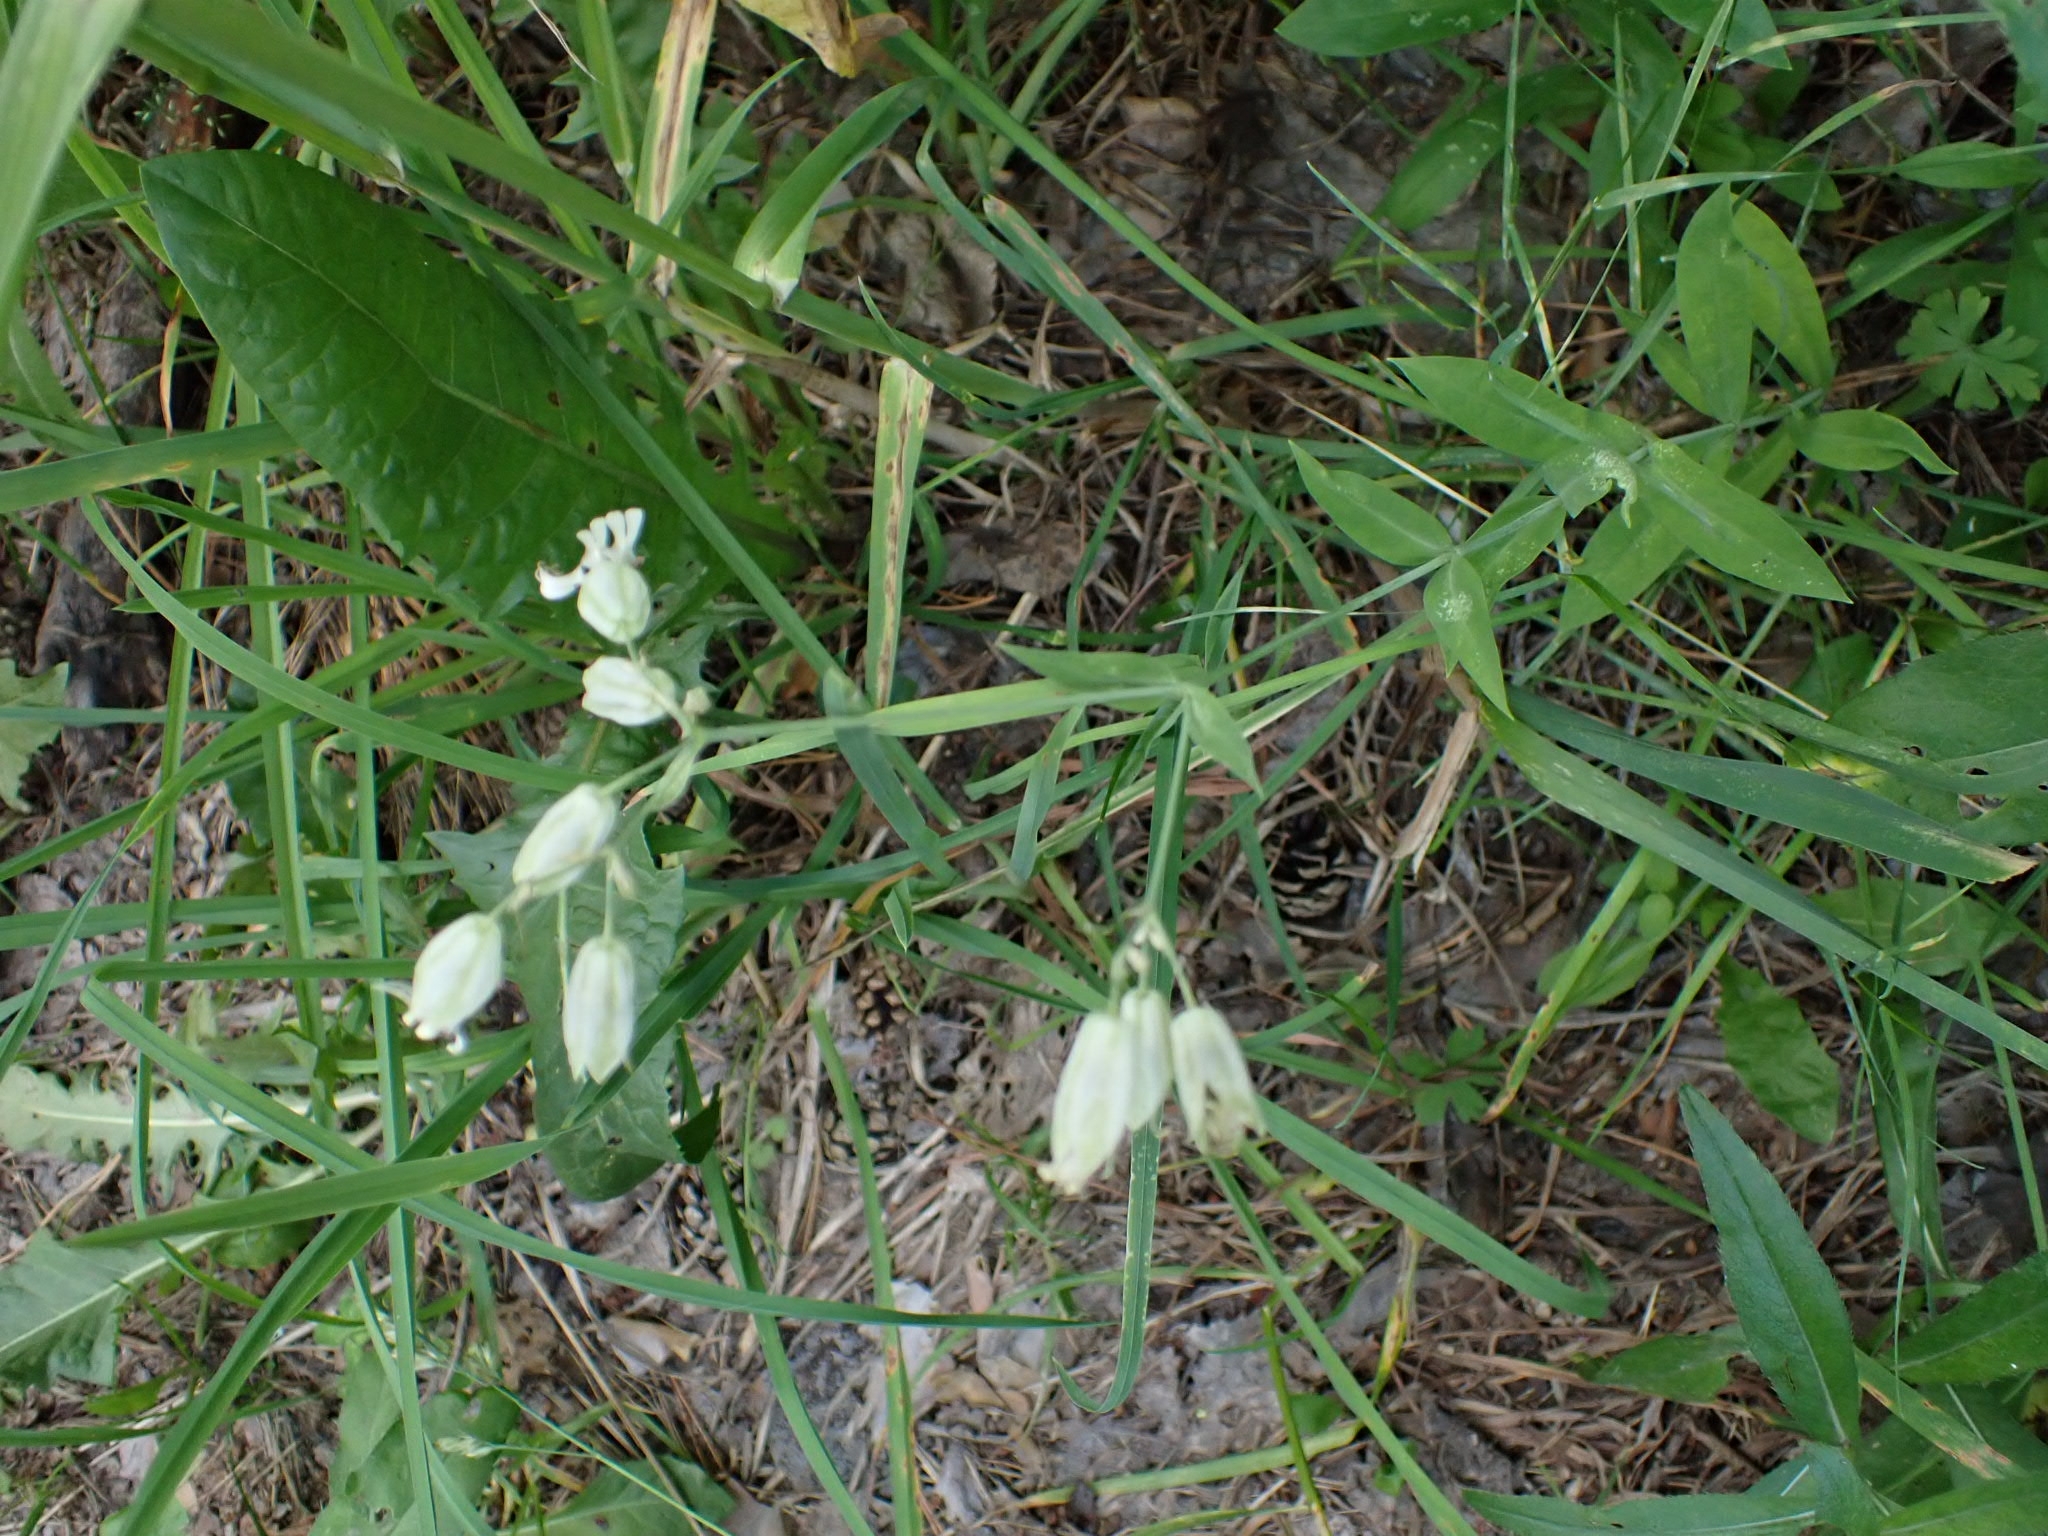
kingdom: Plantae
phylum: Tracheophyta
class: Magnoliopsida
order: Caryophyllales
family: Caryophyllaceae
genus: Silene
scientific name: Silene vulgaris
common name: Bladder campion
